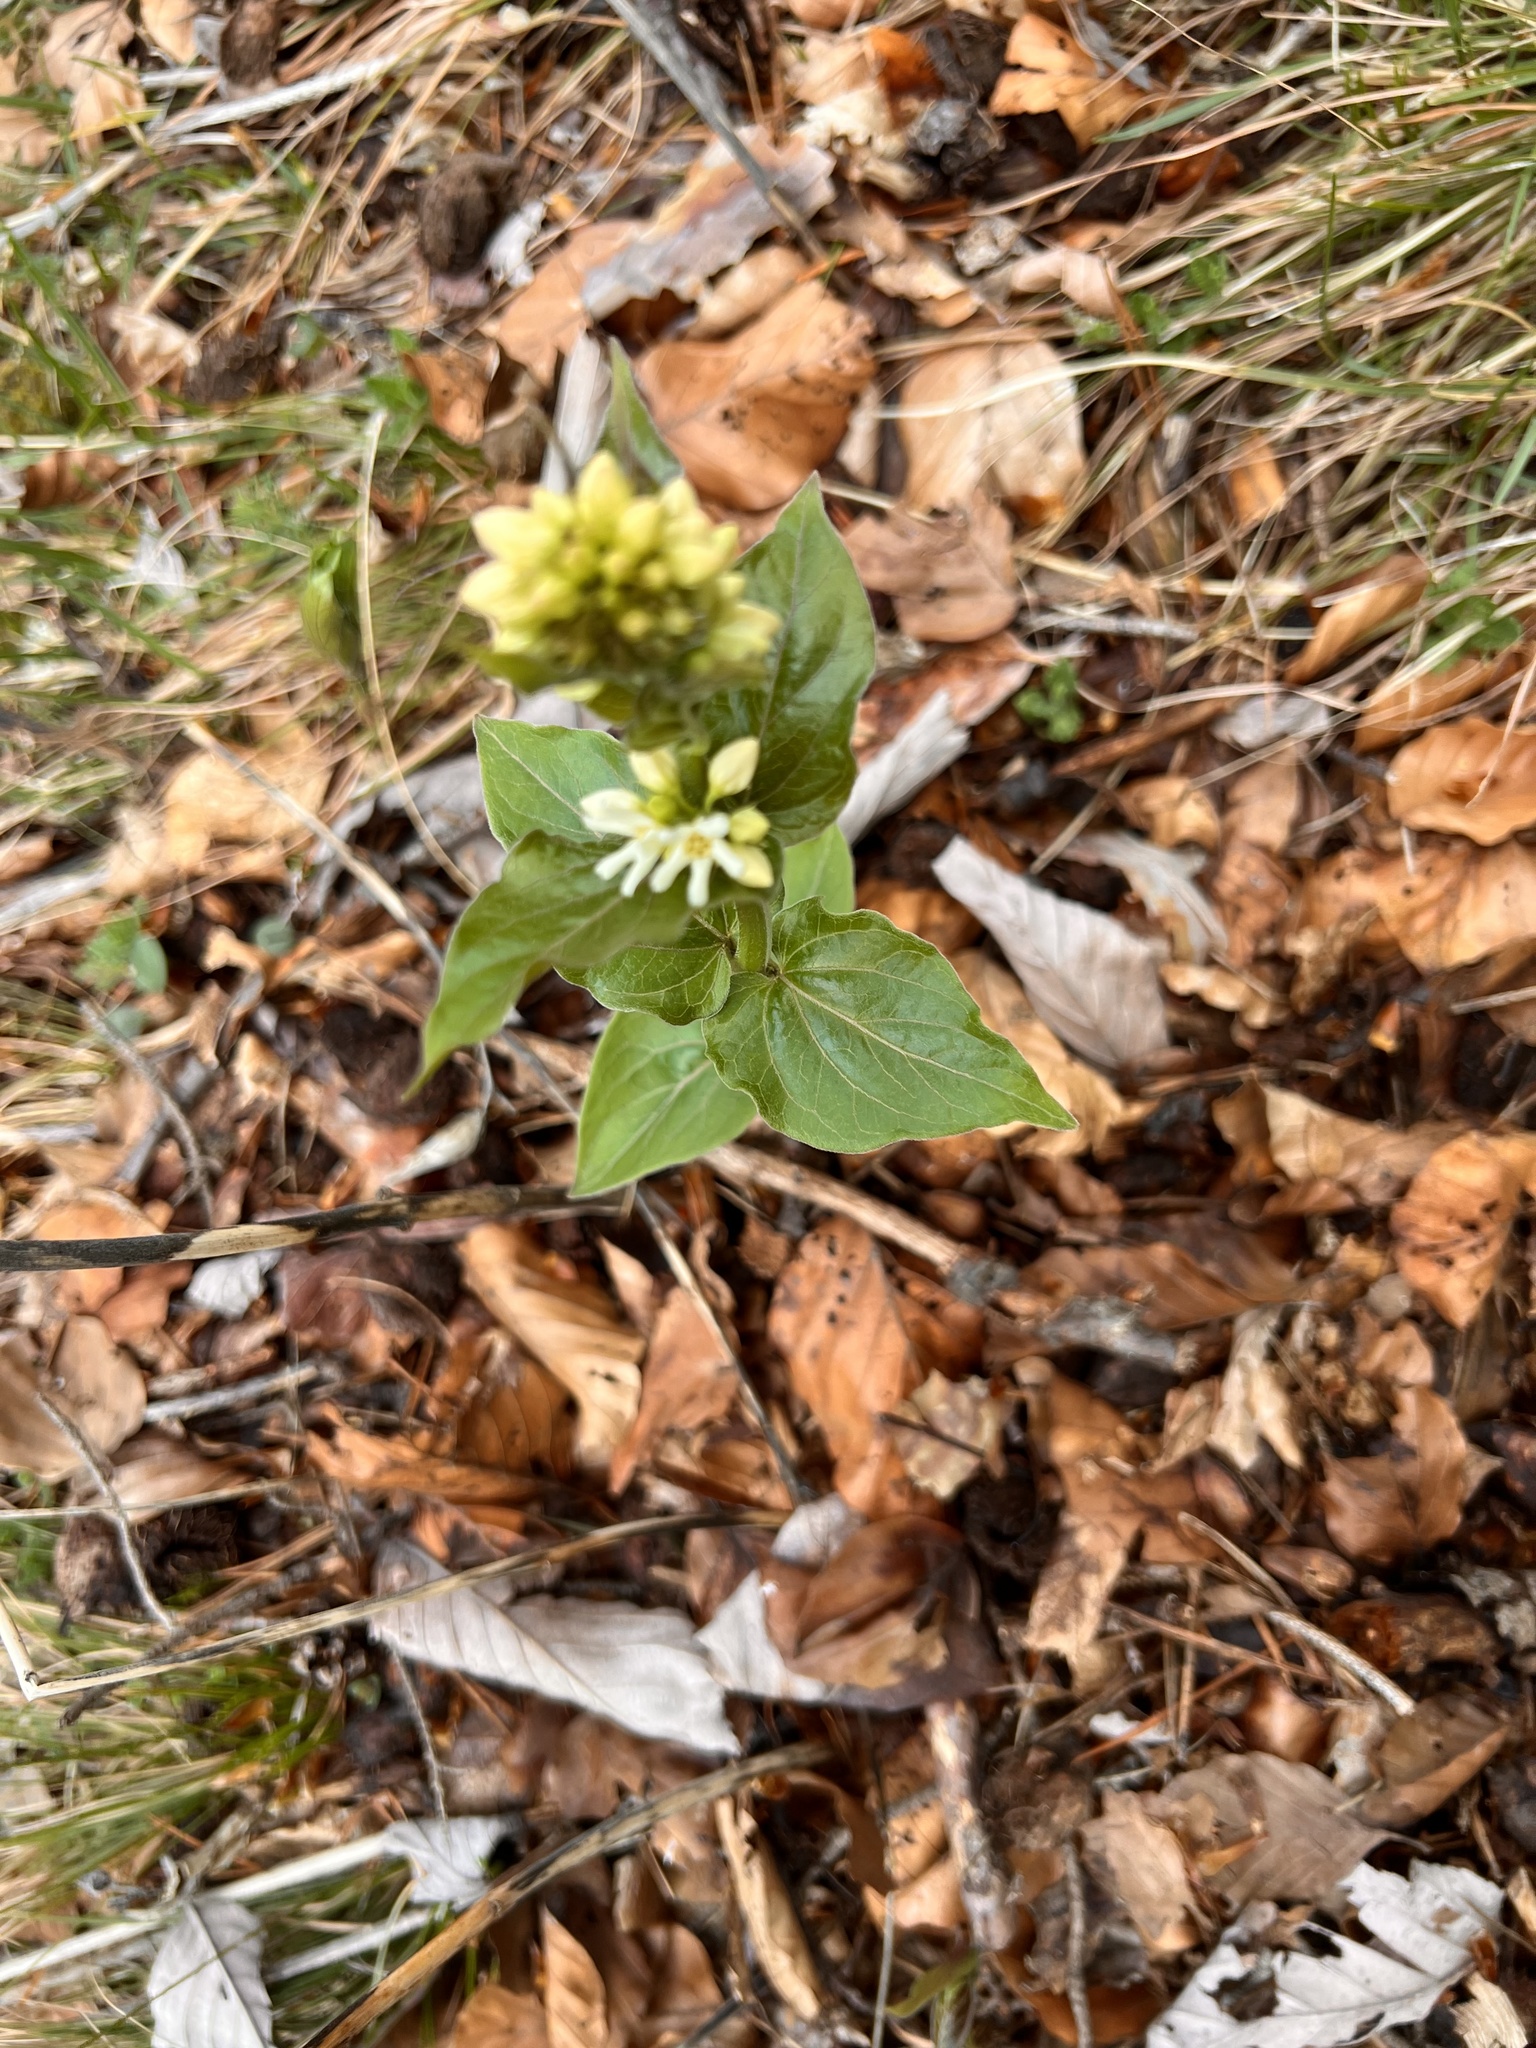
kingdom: Plantae
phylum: Tracheophyta
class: Magnoliopsida
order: Gentianales
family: Apocynaceae
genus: Vincetoxicum
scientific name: Vincetoxicum hirundinaria
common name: White swallowwort
